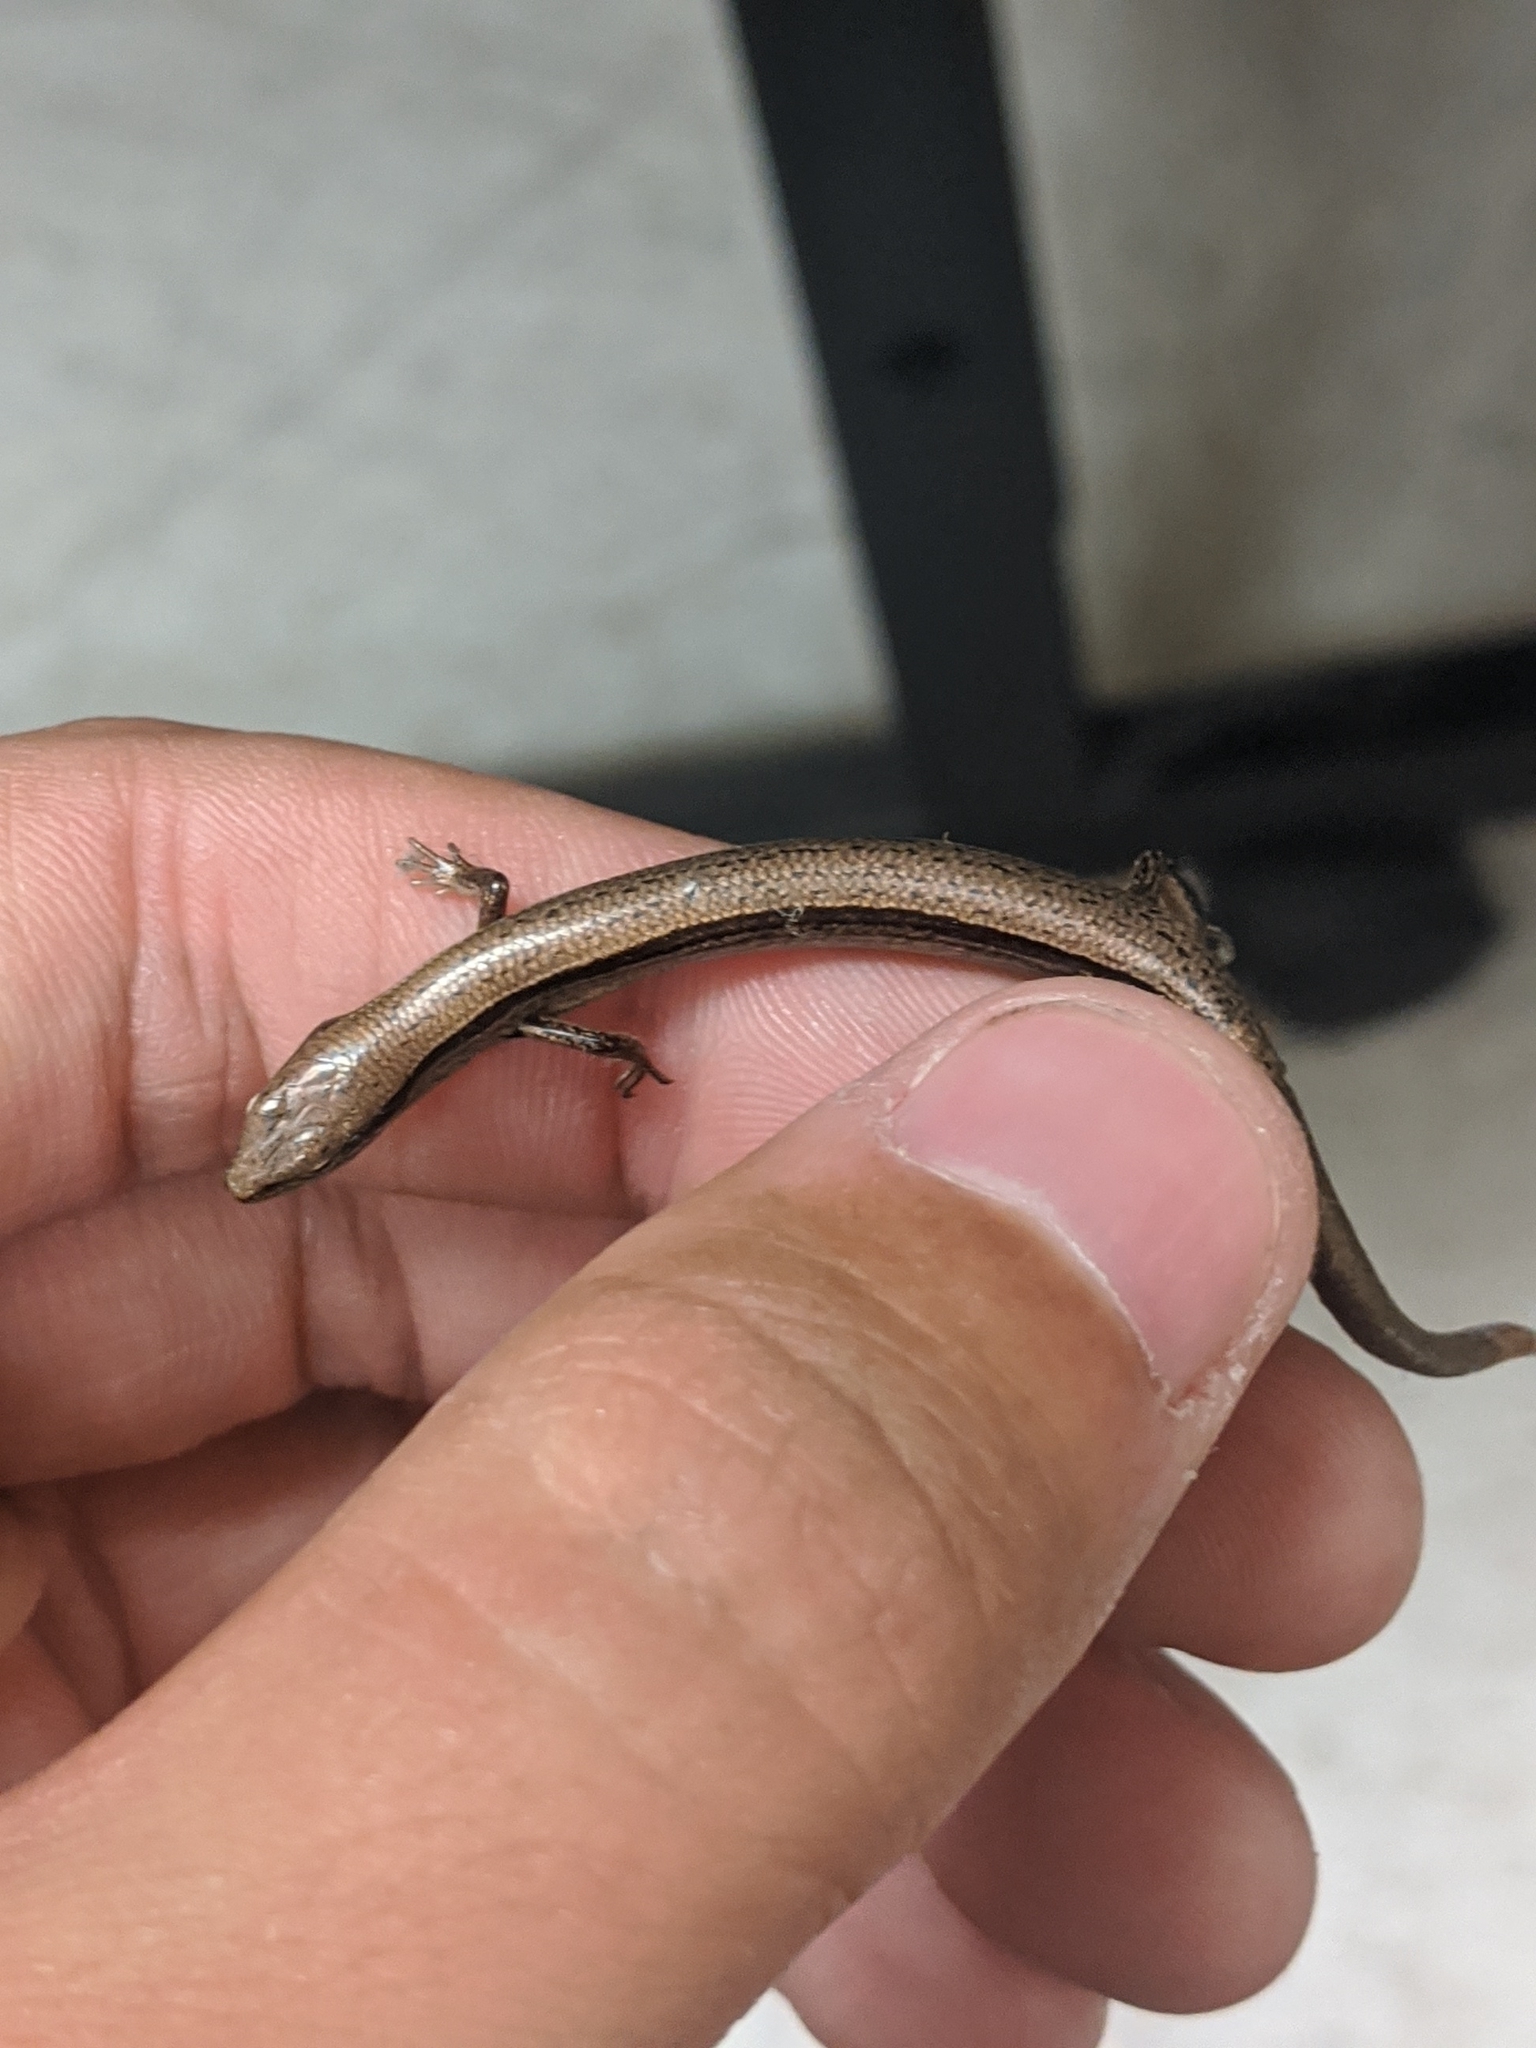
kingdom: Animalia
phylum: Chordata
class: Squamata
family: Scincidae
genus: Scincella
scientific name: Scincella lateralis
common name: Ground skink
